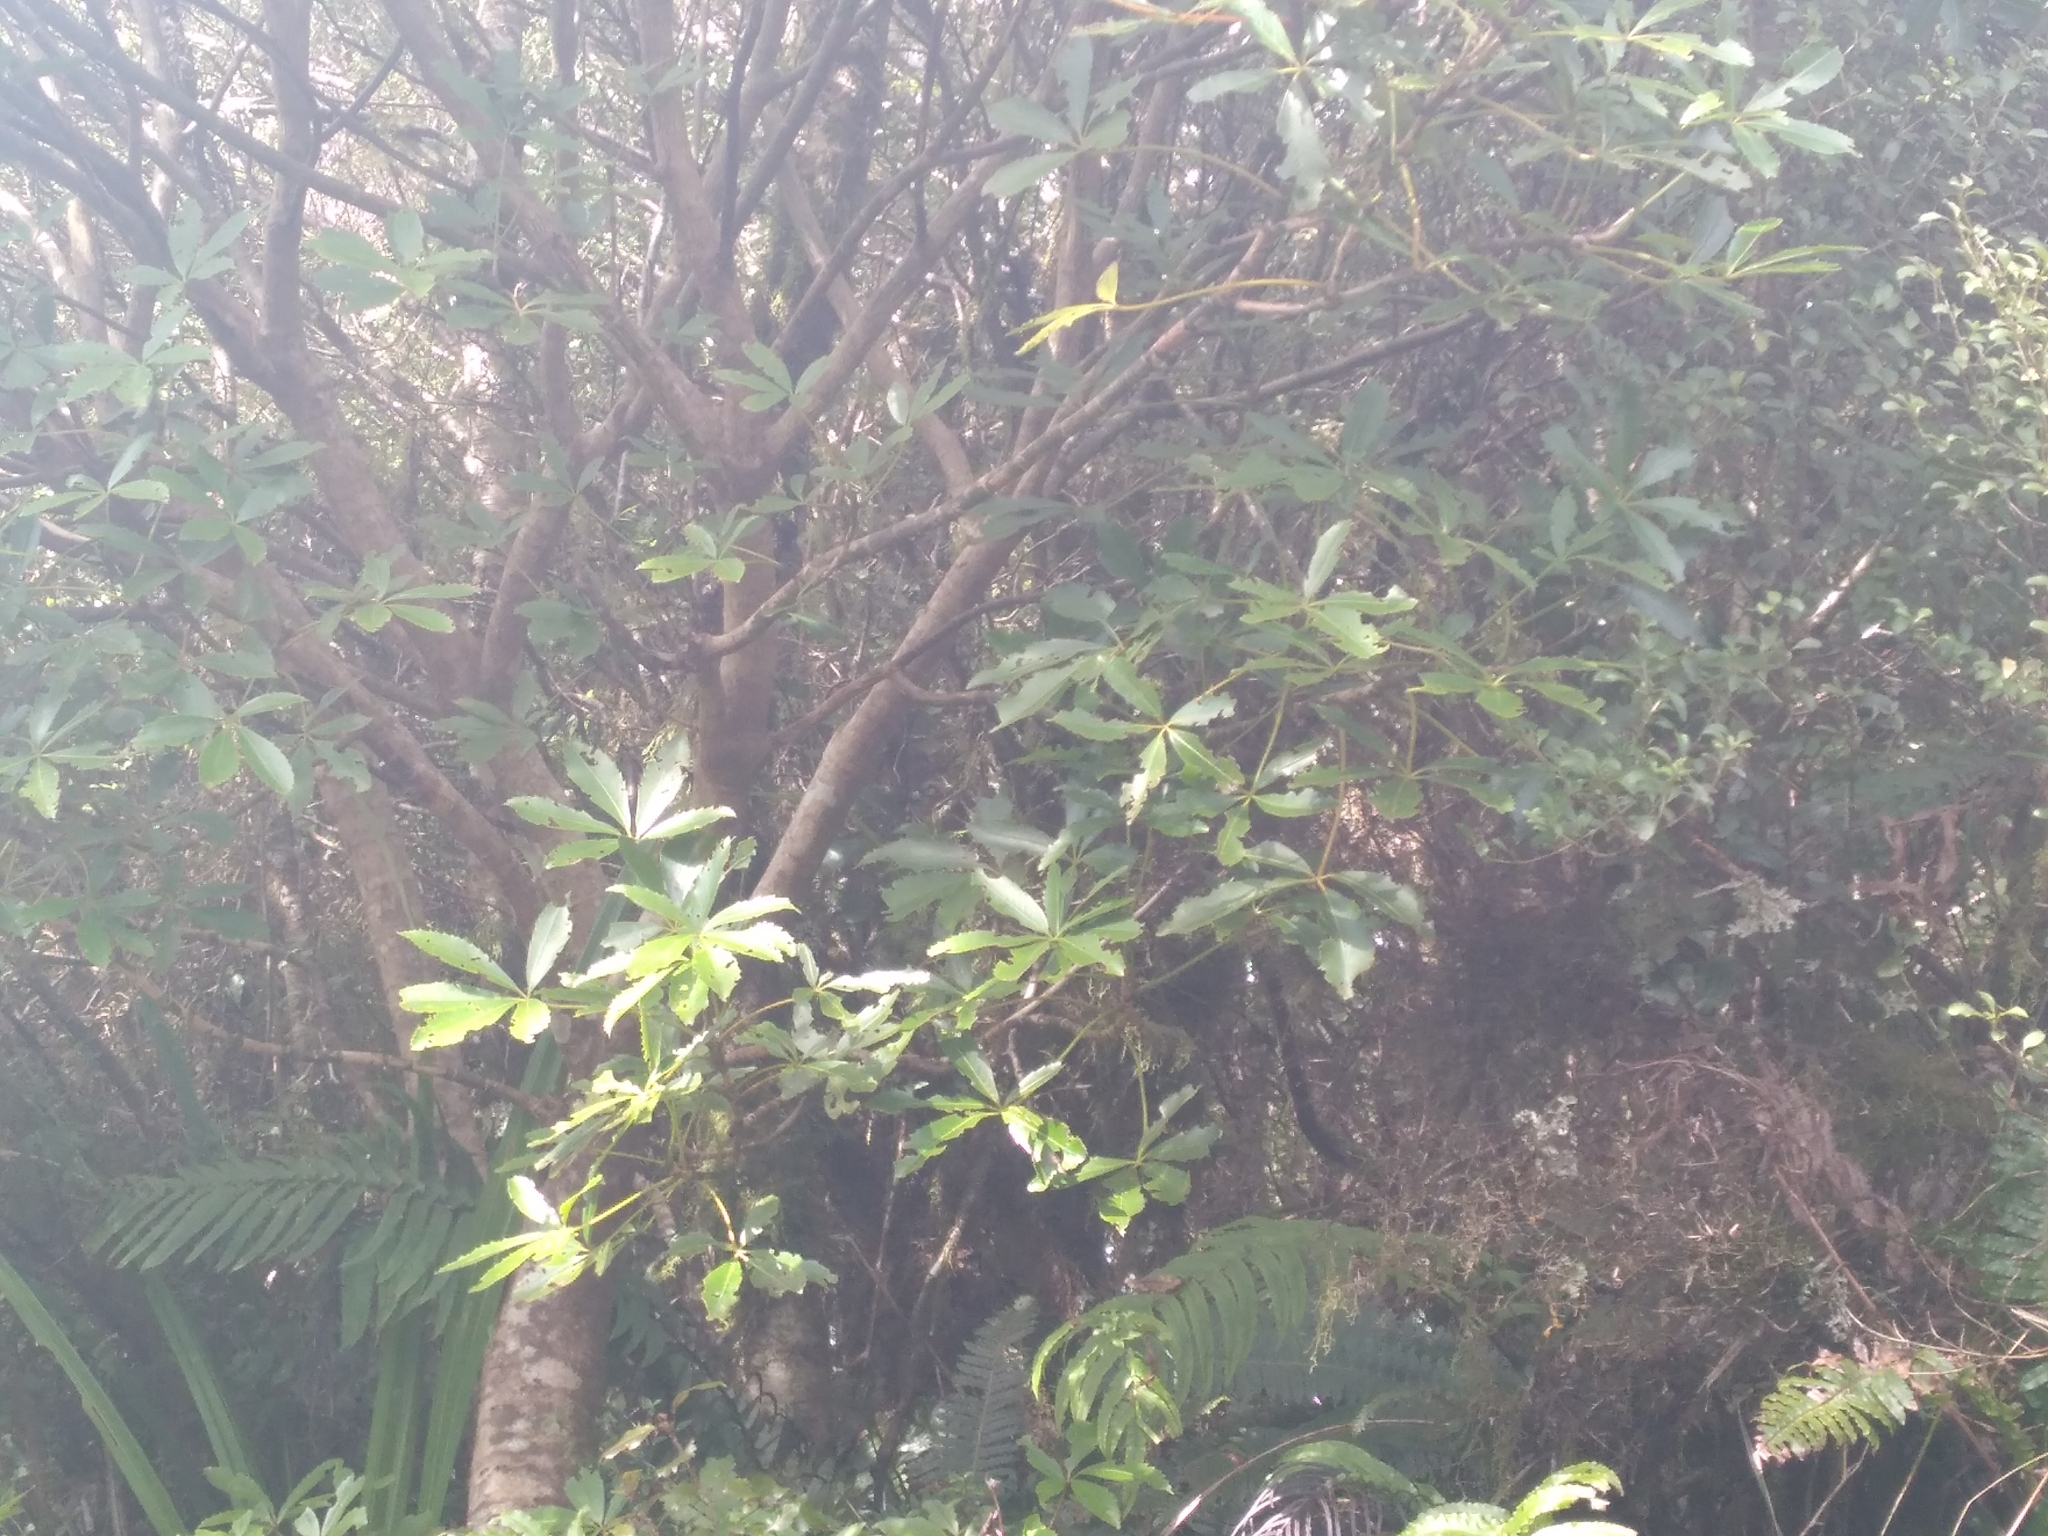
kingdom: Plantae
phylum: Tracheophyta
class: Magnoliopsida
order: Apiales
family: Araliaceae
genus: Neopanax
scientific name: Neopanax colensoi
